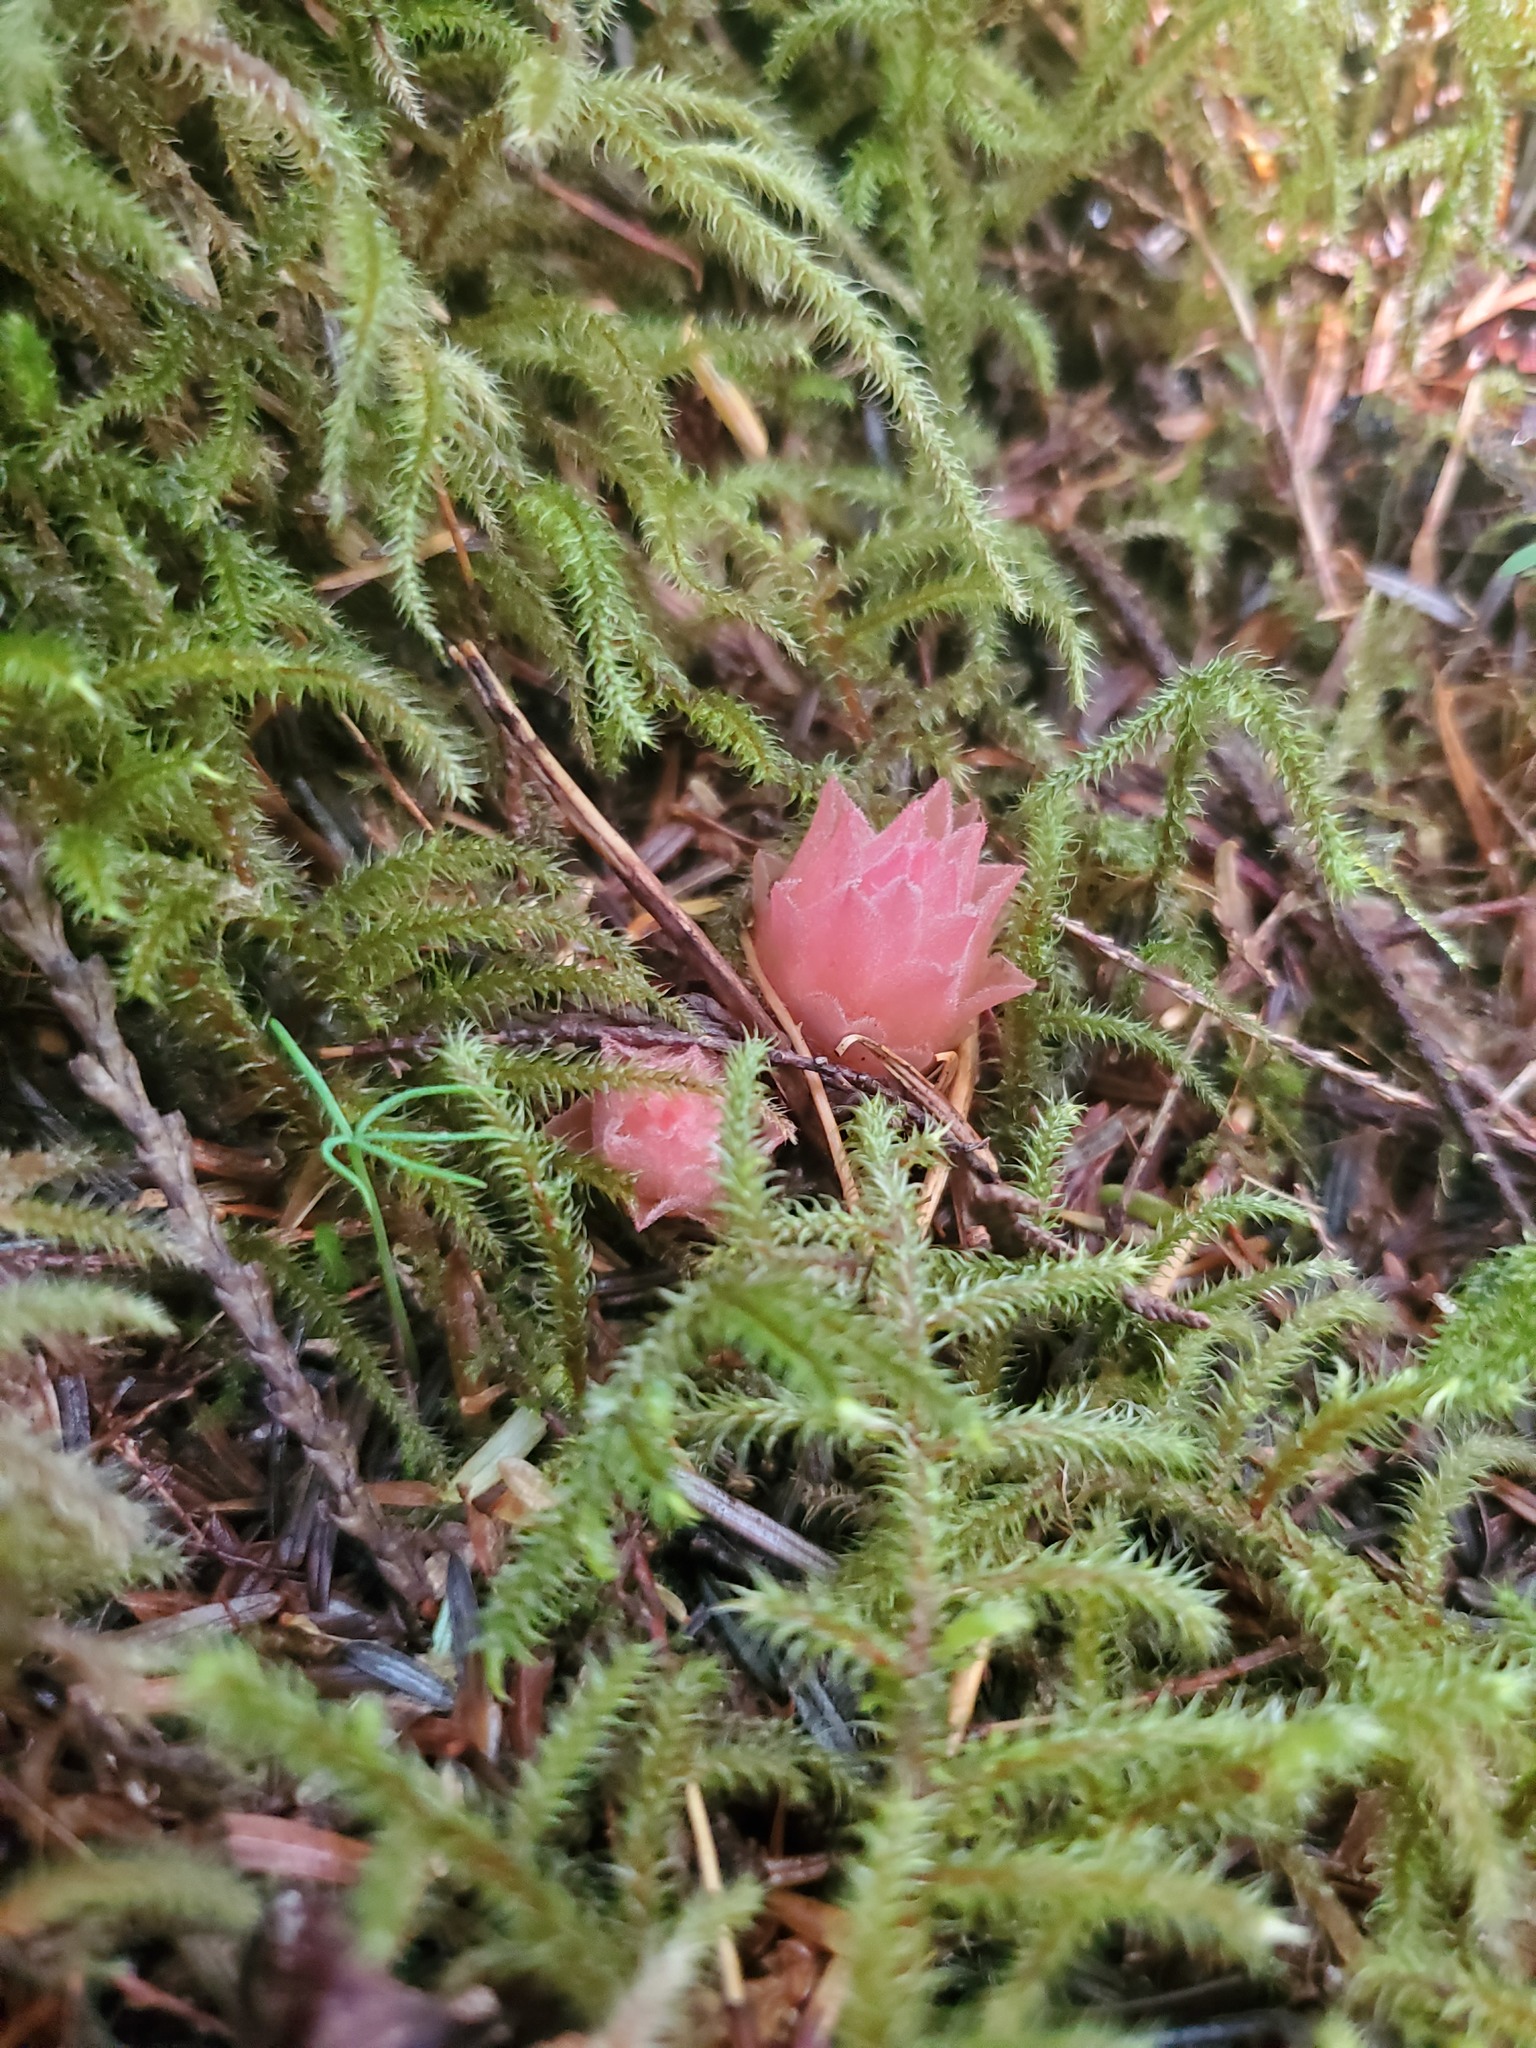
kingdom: Plantae
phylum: Tracheophyta
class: Magnoliopsida
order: Ericales
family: Ericaceae
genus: Hemitomes
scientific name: Hemitomes congestum
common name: Cone plant
